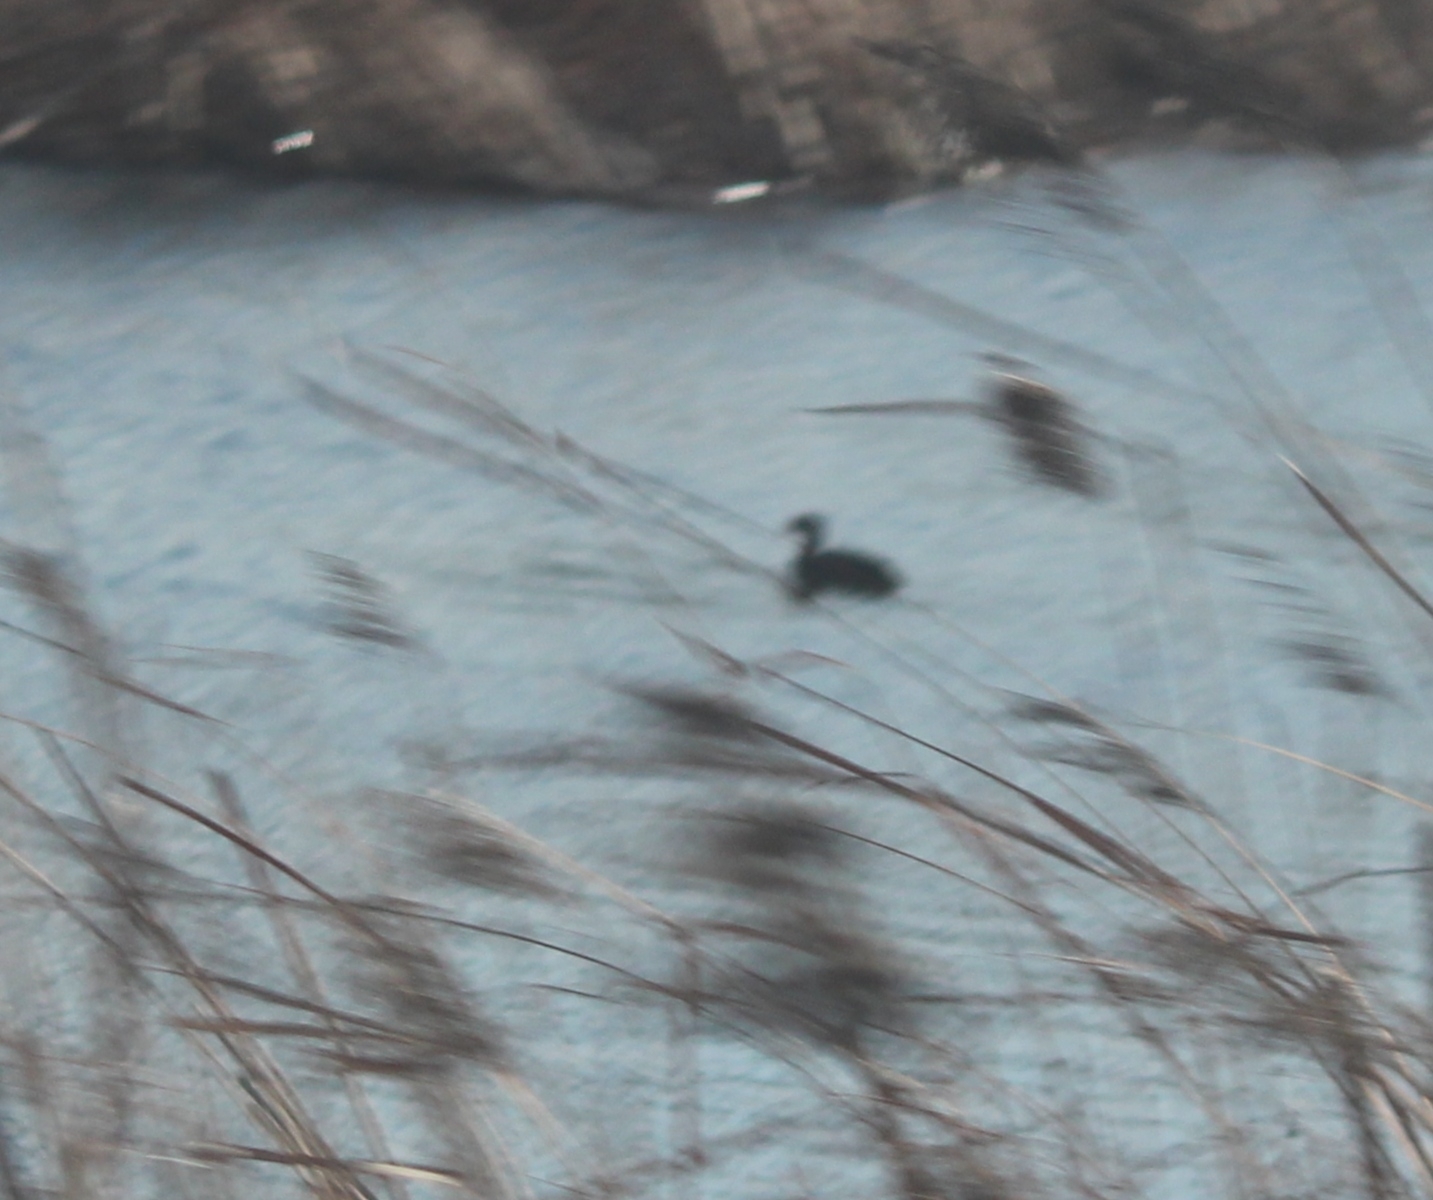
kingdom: Animalia
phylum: Chordata
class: Aves
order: Gruiformes
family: Rallidae
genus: Fulica
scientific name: Fulica atra
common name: Eurasian coot
